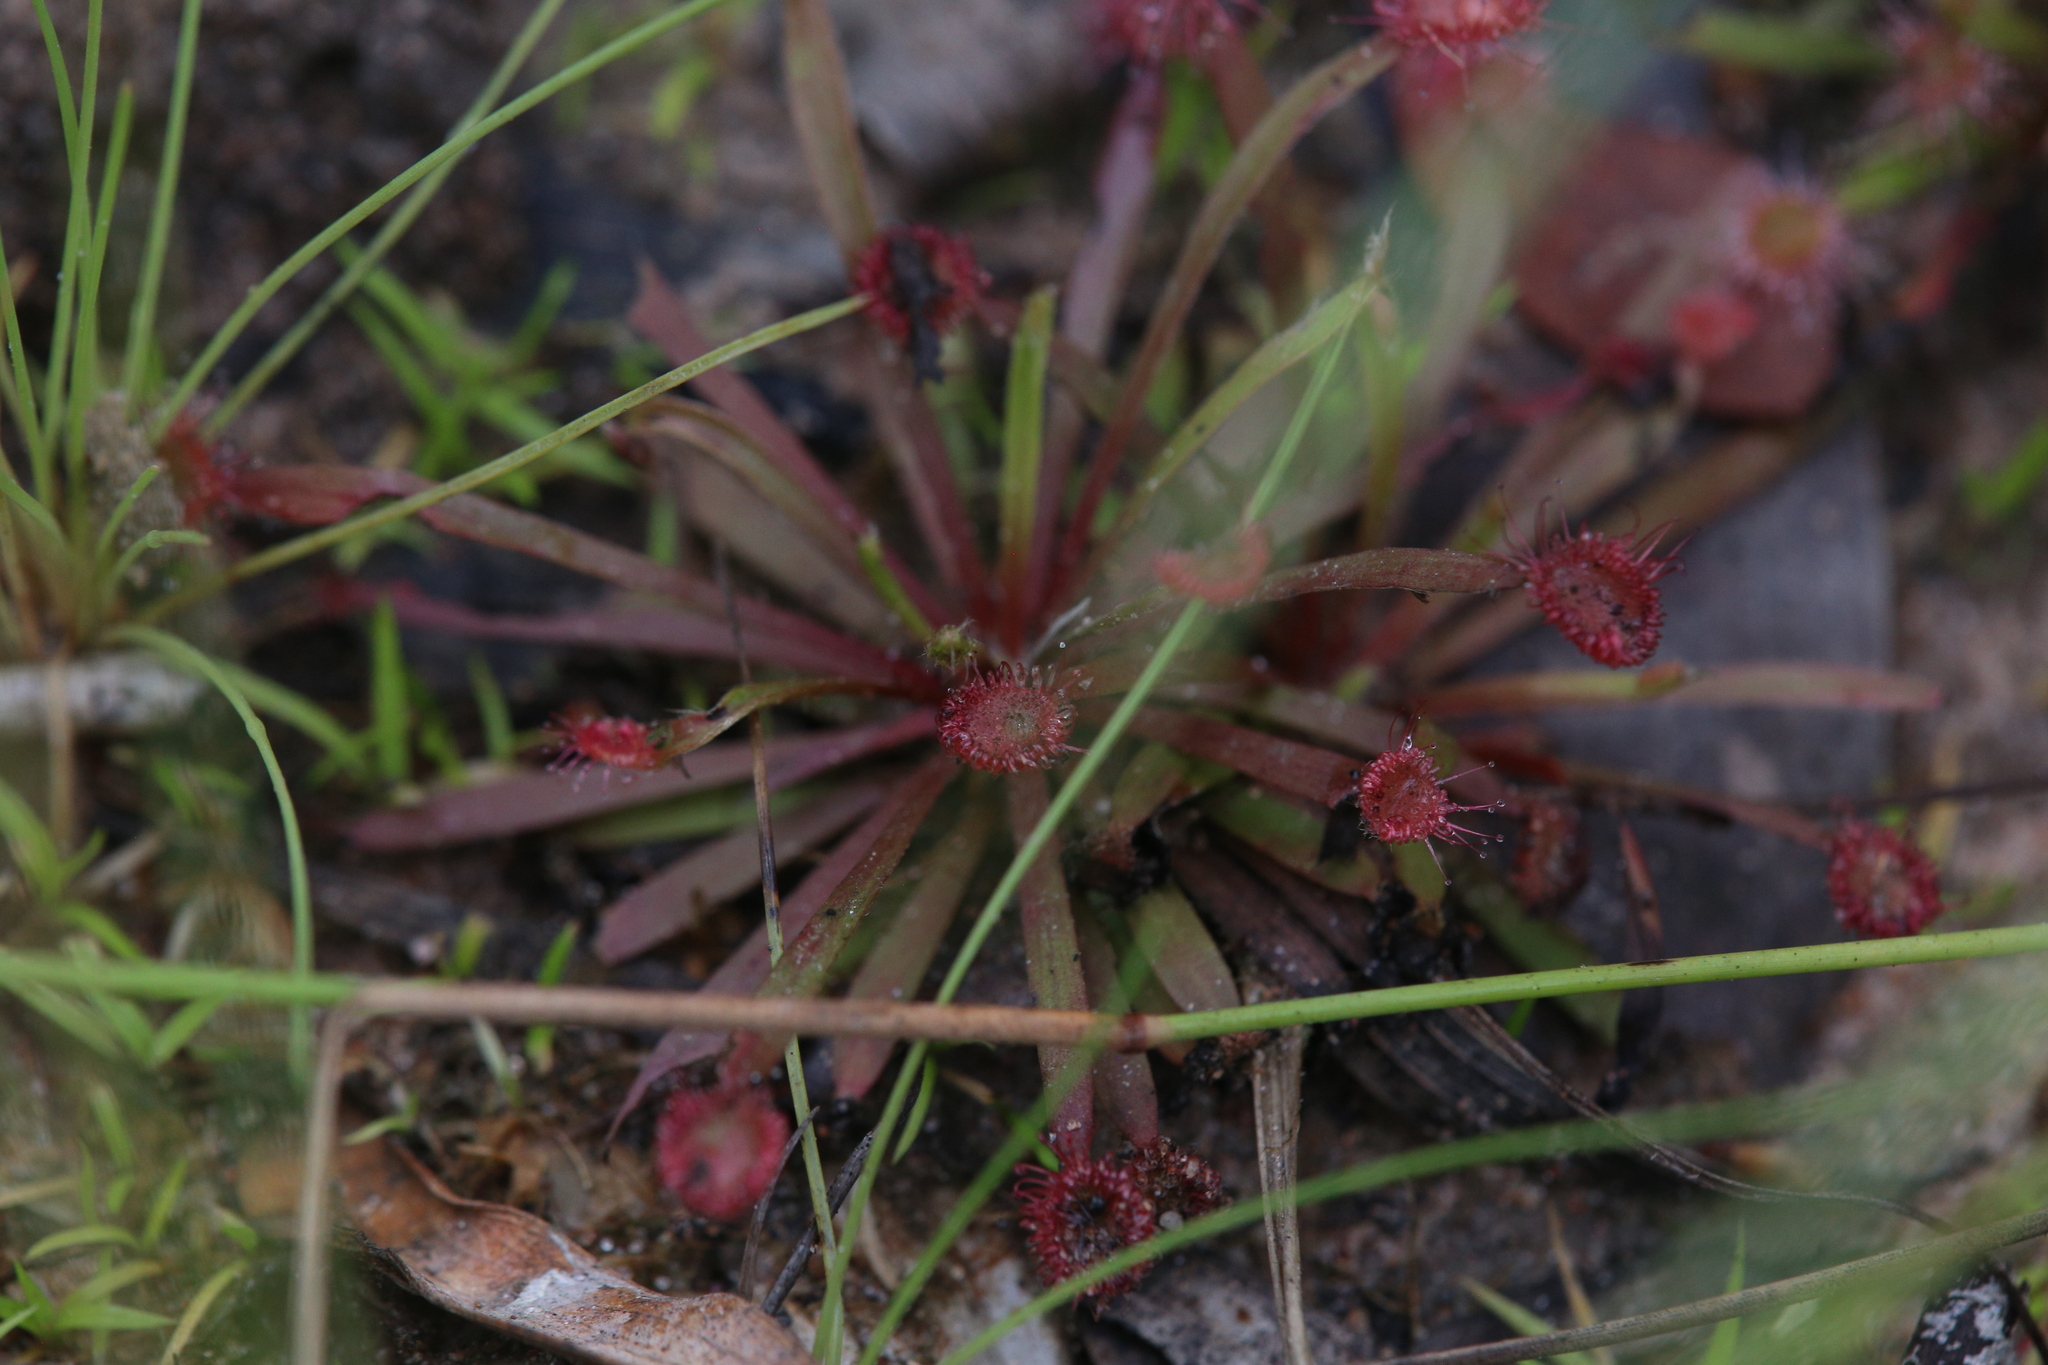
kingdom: Plantae
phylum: Tracheophyta
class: Magnoliopsida
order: Caryophyllales
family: Droseraceae
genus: Drosera
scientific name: Drosera dilatatopetiolaris
